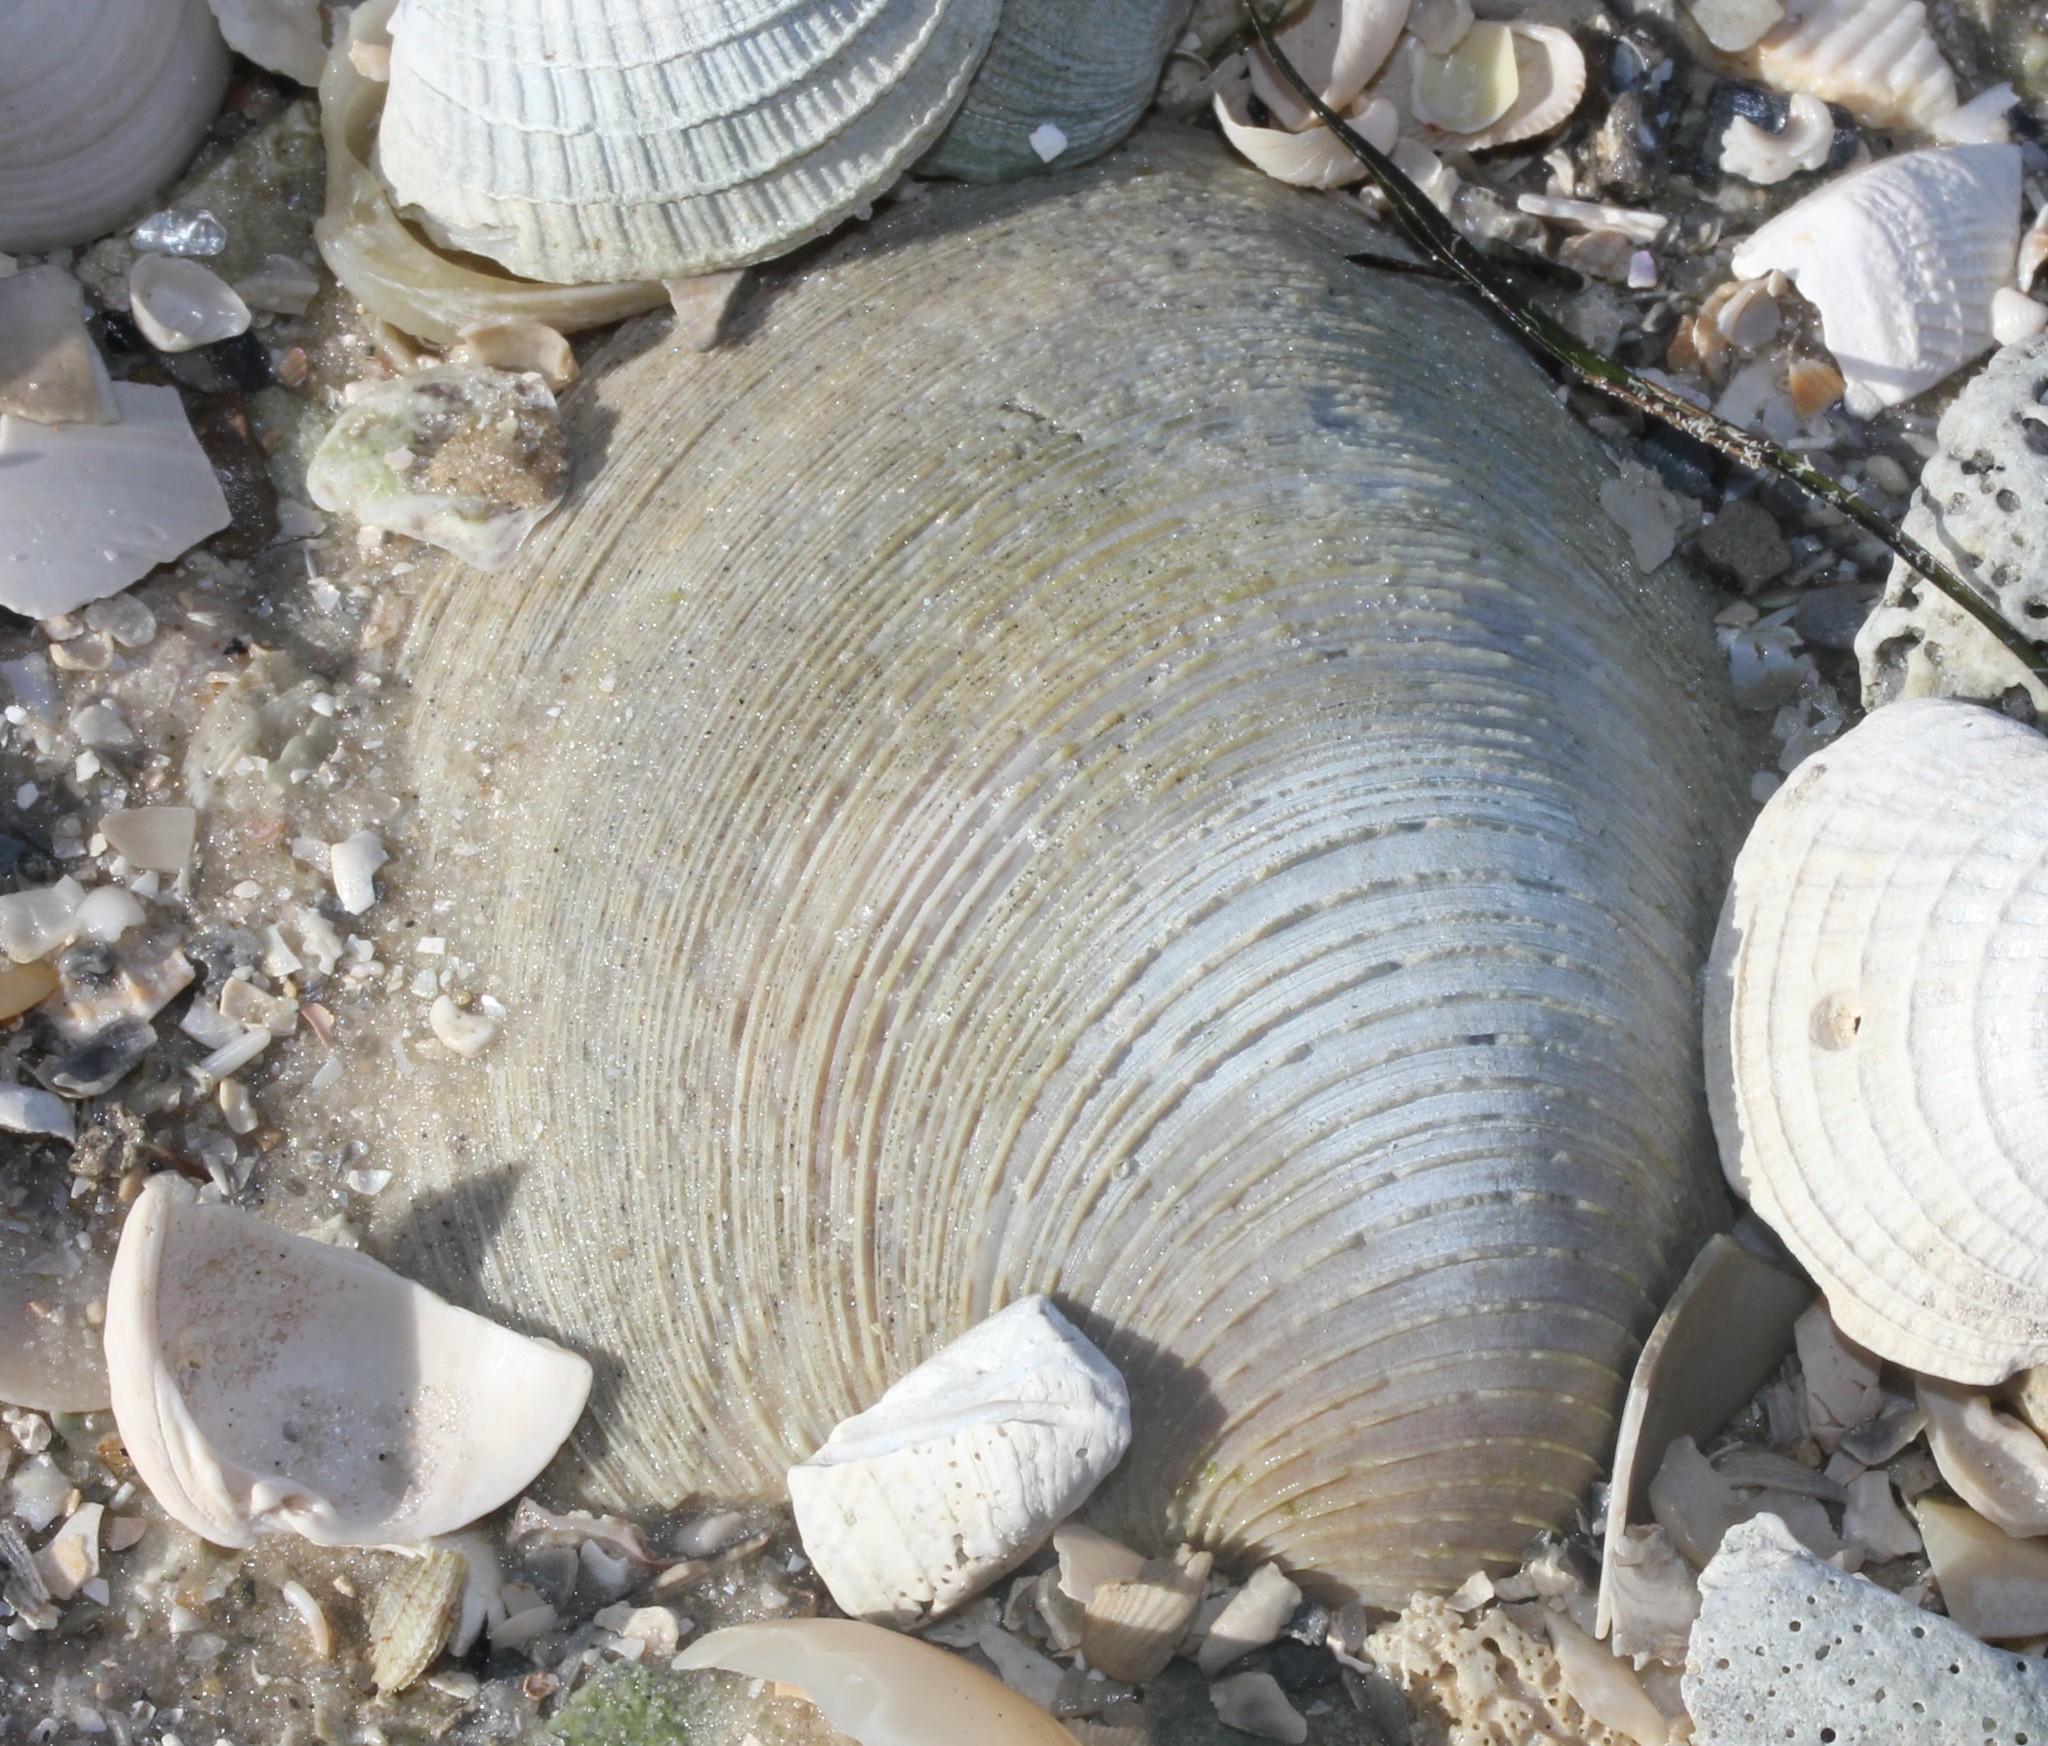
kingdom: Animalia
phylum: Mollusca
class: Bivalvia
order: Venerida
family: Veneridae
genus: Mercenaria
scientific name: Mercenaria campechiensis
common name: Südliche quahog-muschel
